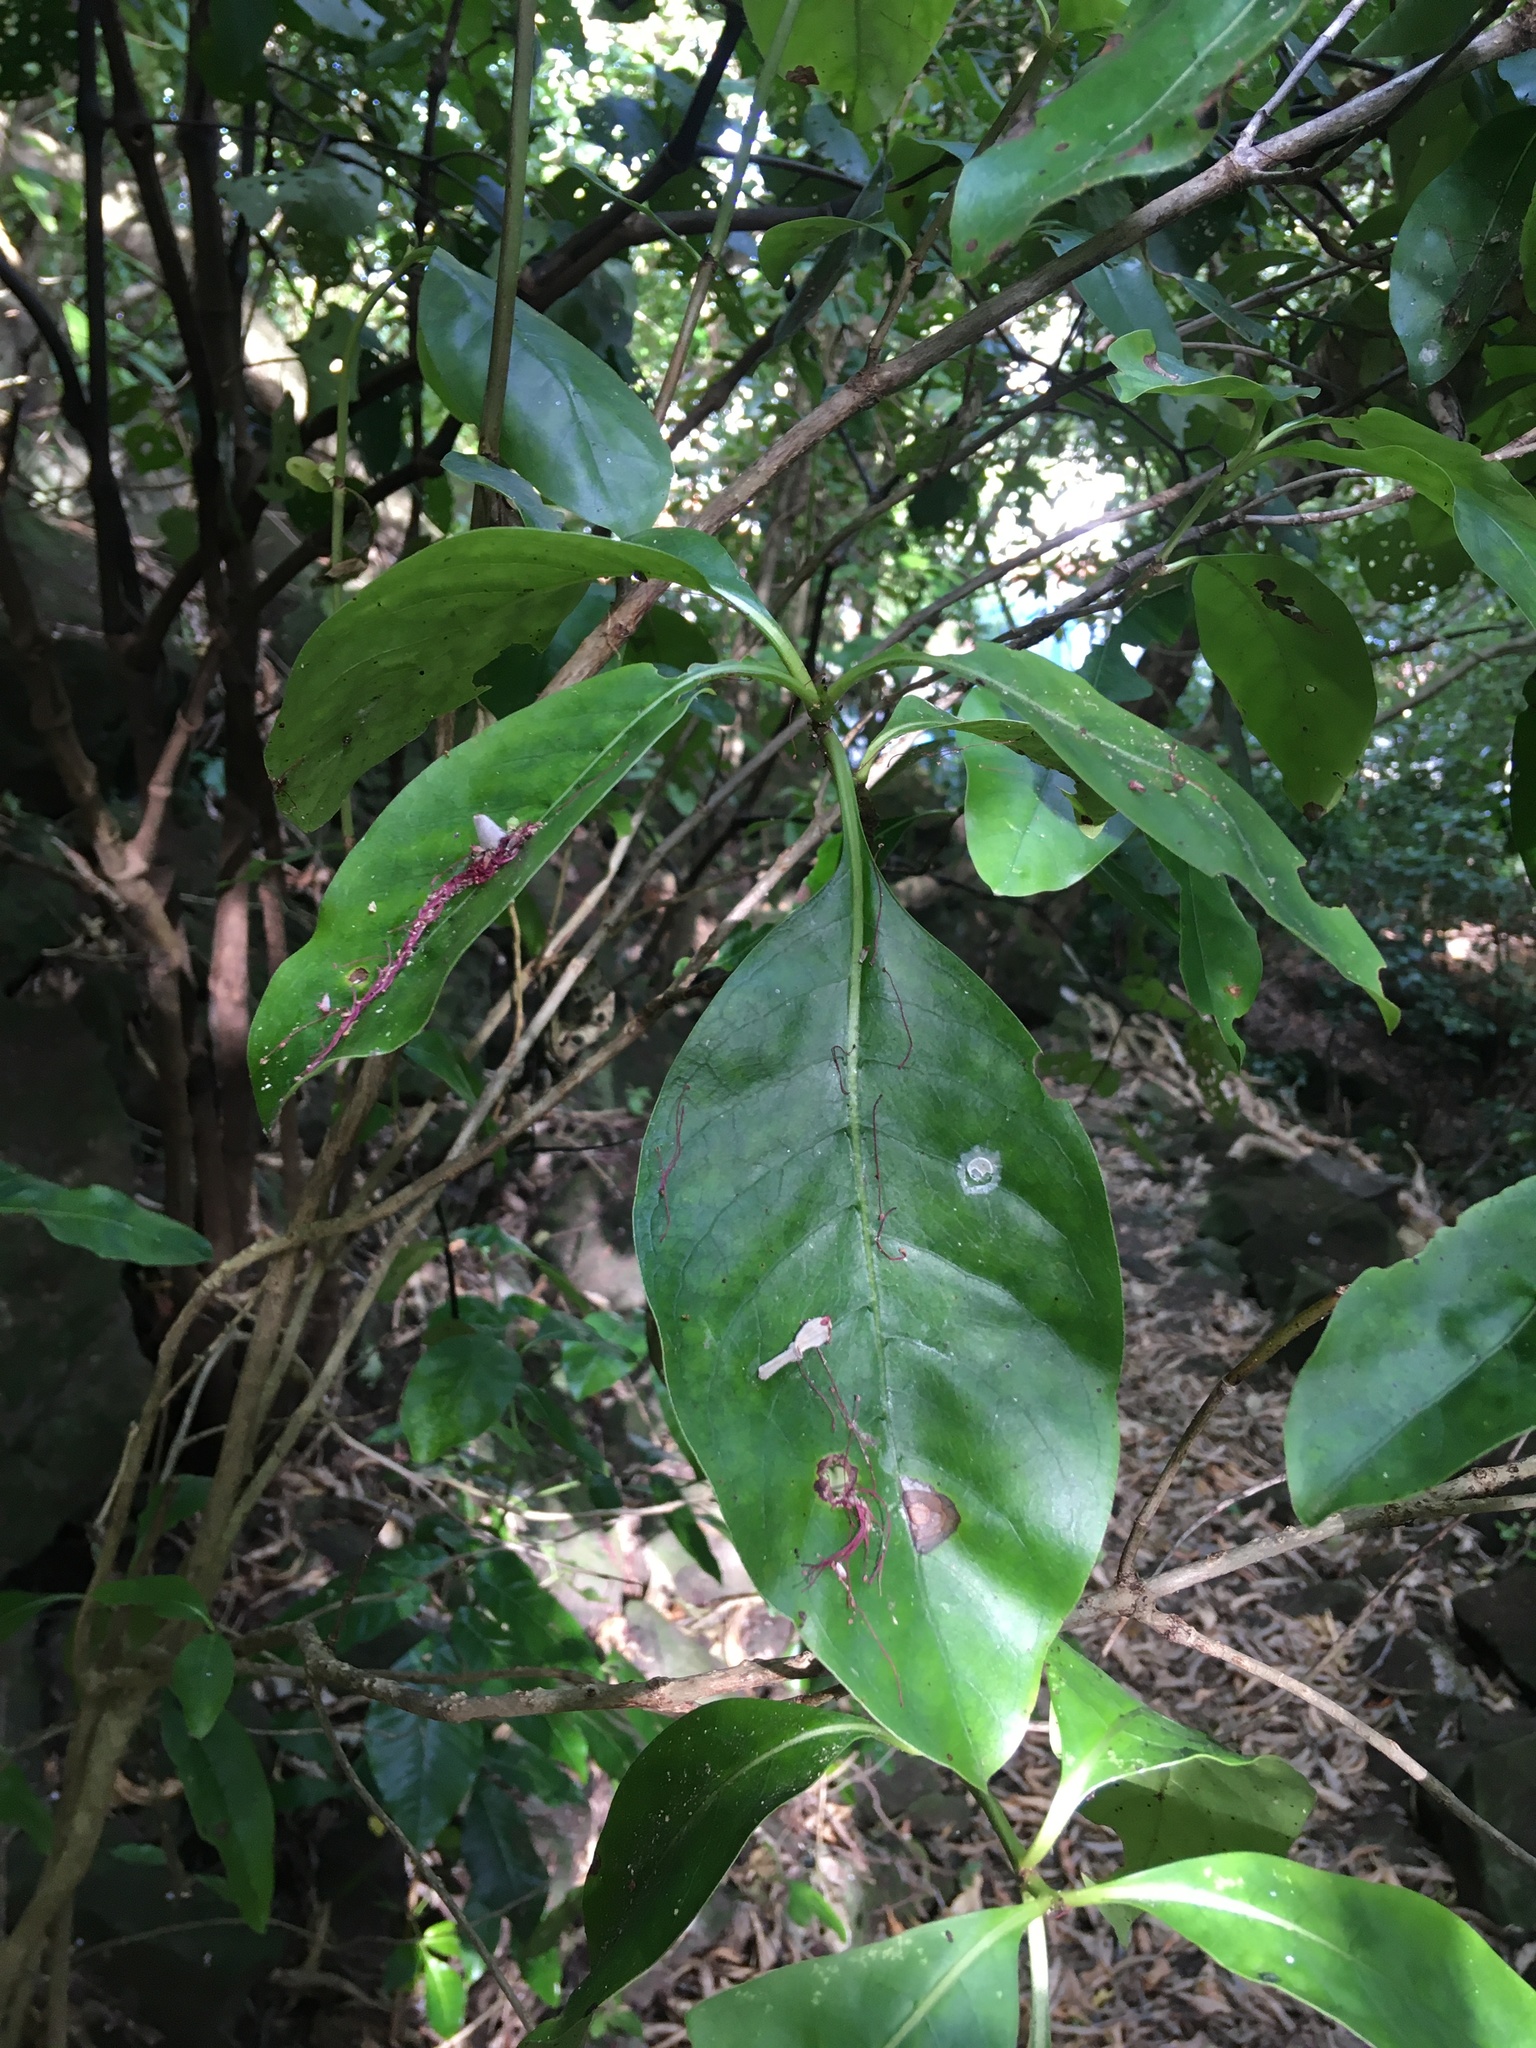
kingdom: Plantae
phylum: Tracheophyta
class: Magnoliopsida
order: Gentianales
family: Rubiaceae
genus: Coprosma
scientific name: Coprosma macrocarpa
